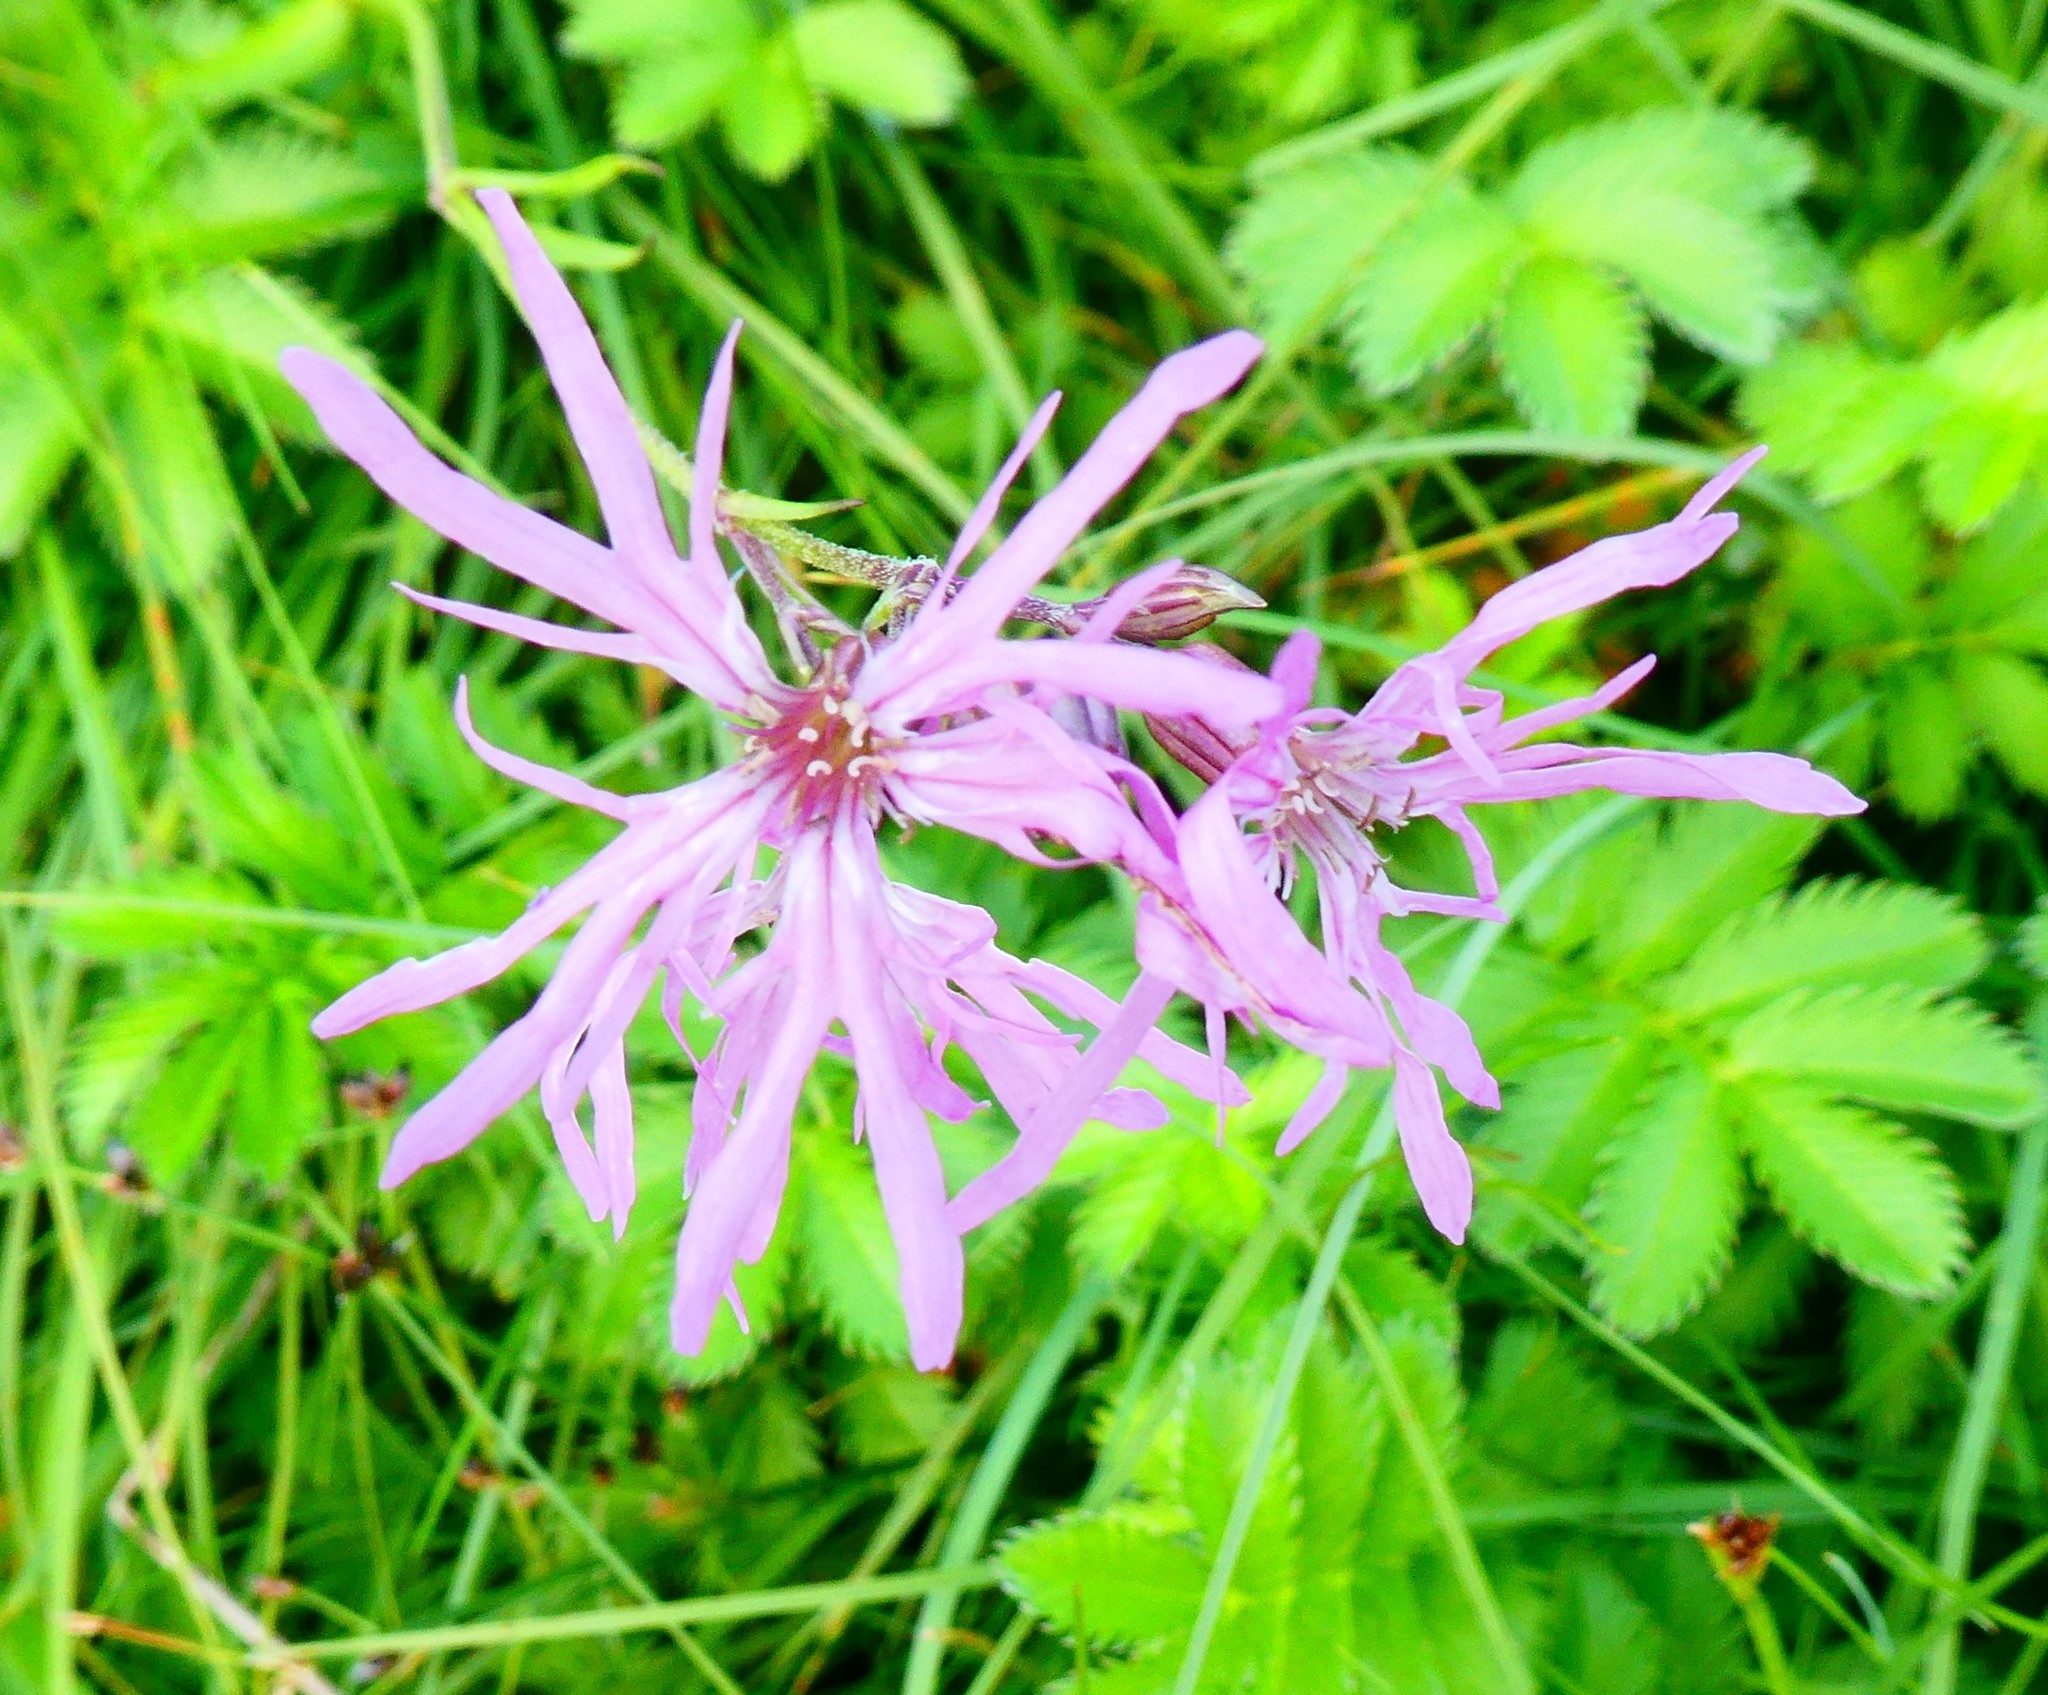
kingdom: Plantae
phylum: Tracheophyta
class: Magnoliopsida
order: Caryophyllales
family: Caryophyllaceae
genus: Silene
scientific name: Silene flos-cuculi
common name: Ragged-robin
